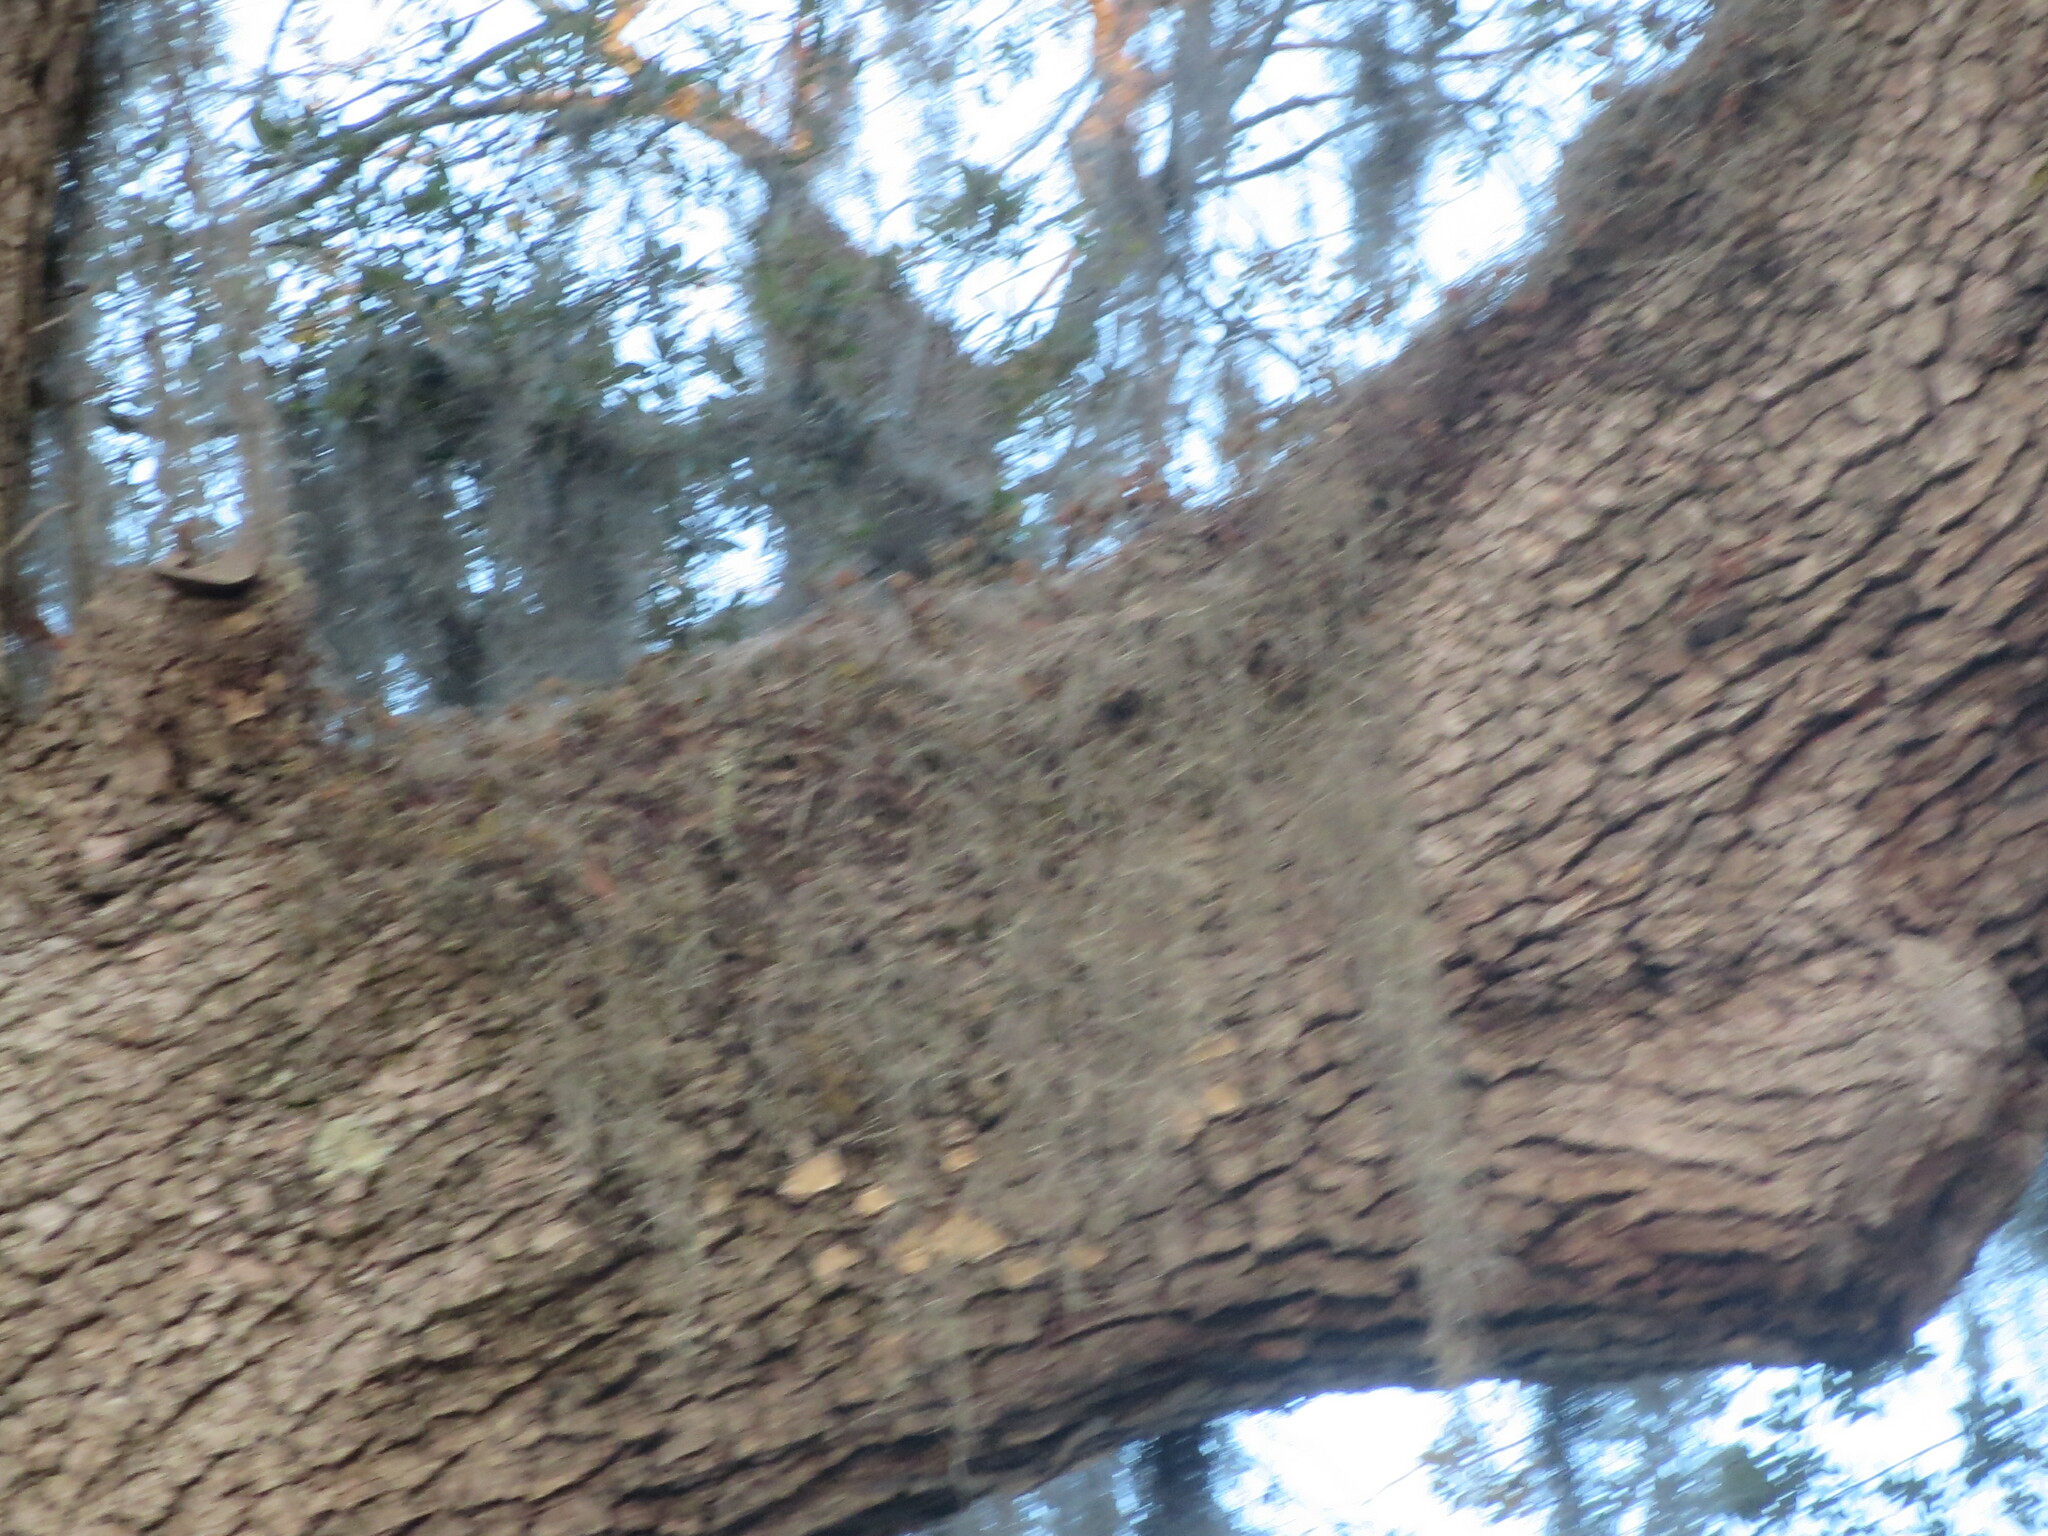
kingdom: Plantae
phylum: Tracheophyta
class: Liliopsida
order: Poales
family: Bromeliaceae
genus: Tillandsia
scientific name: Tillandsia usneoides
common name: Spanish moss
